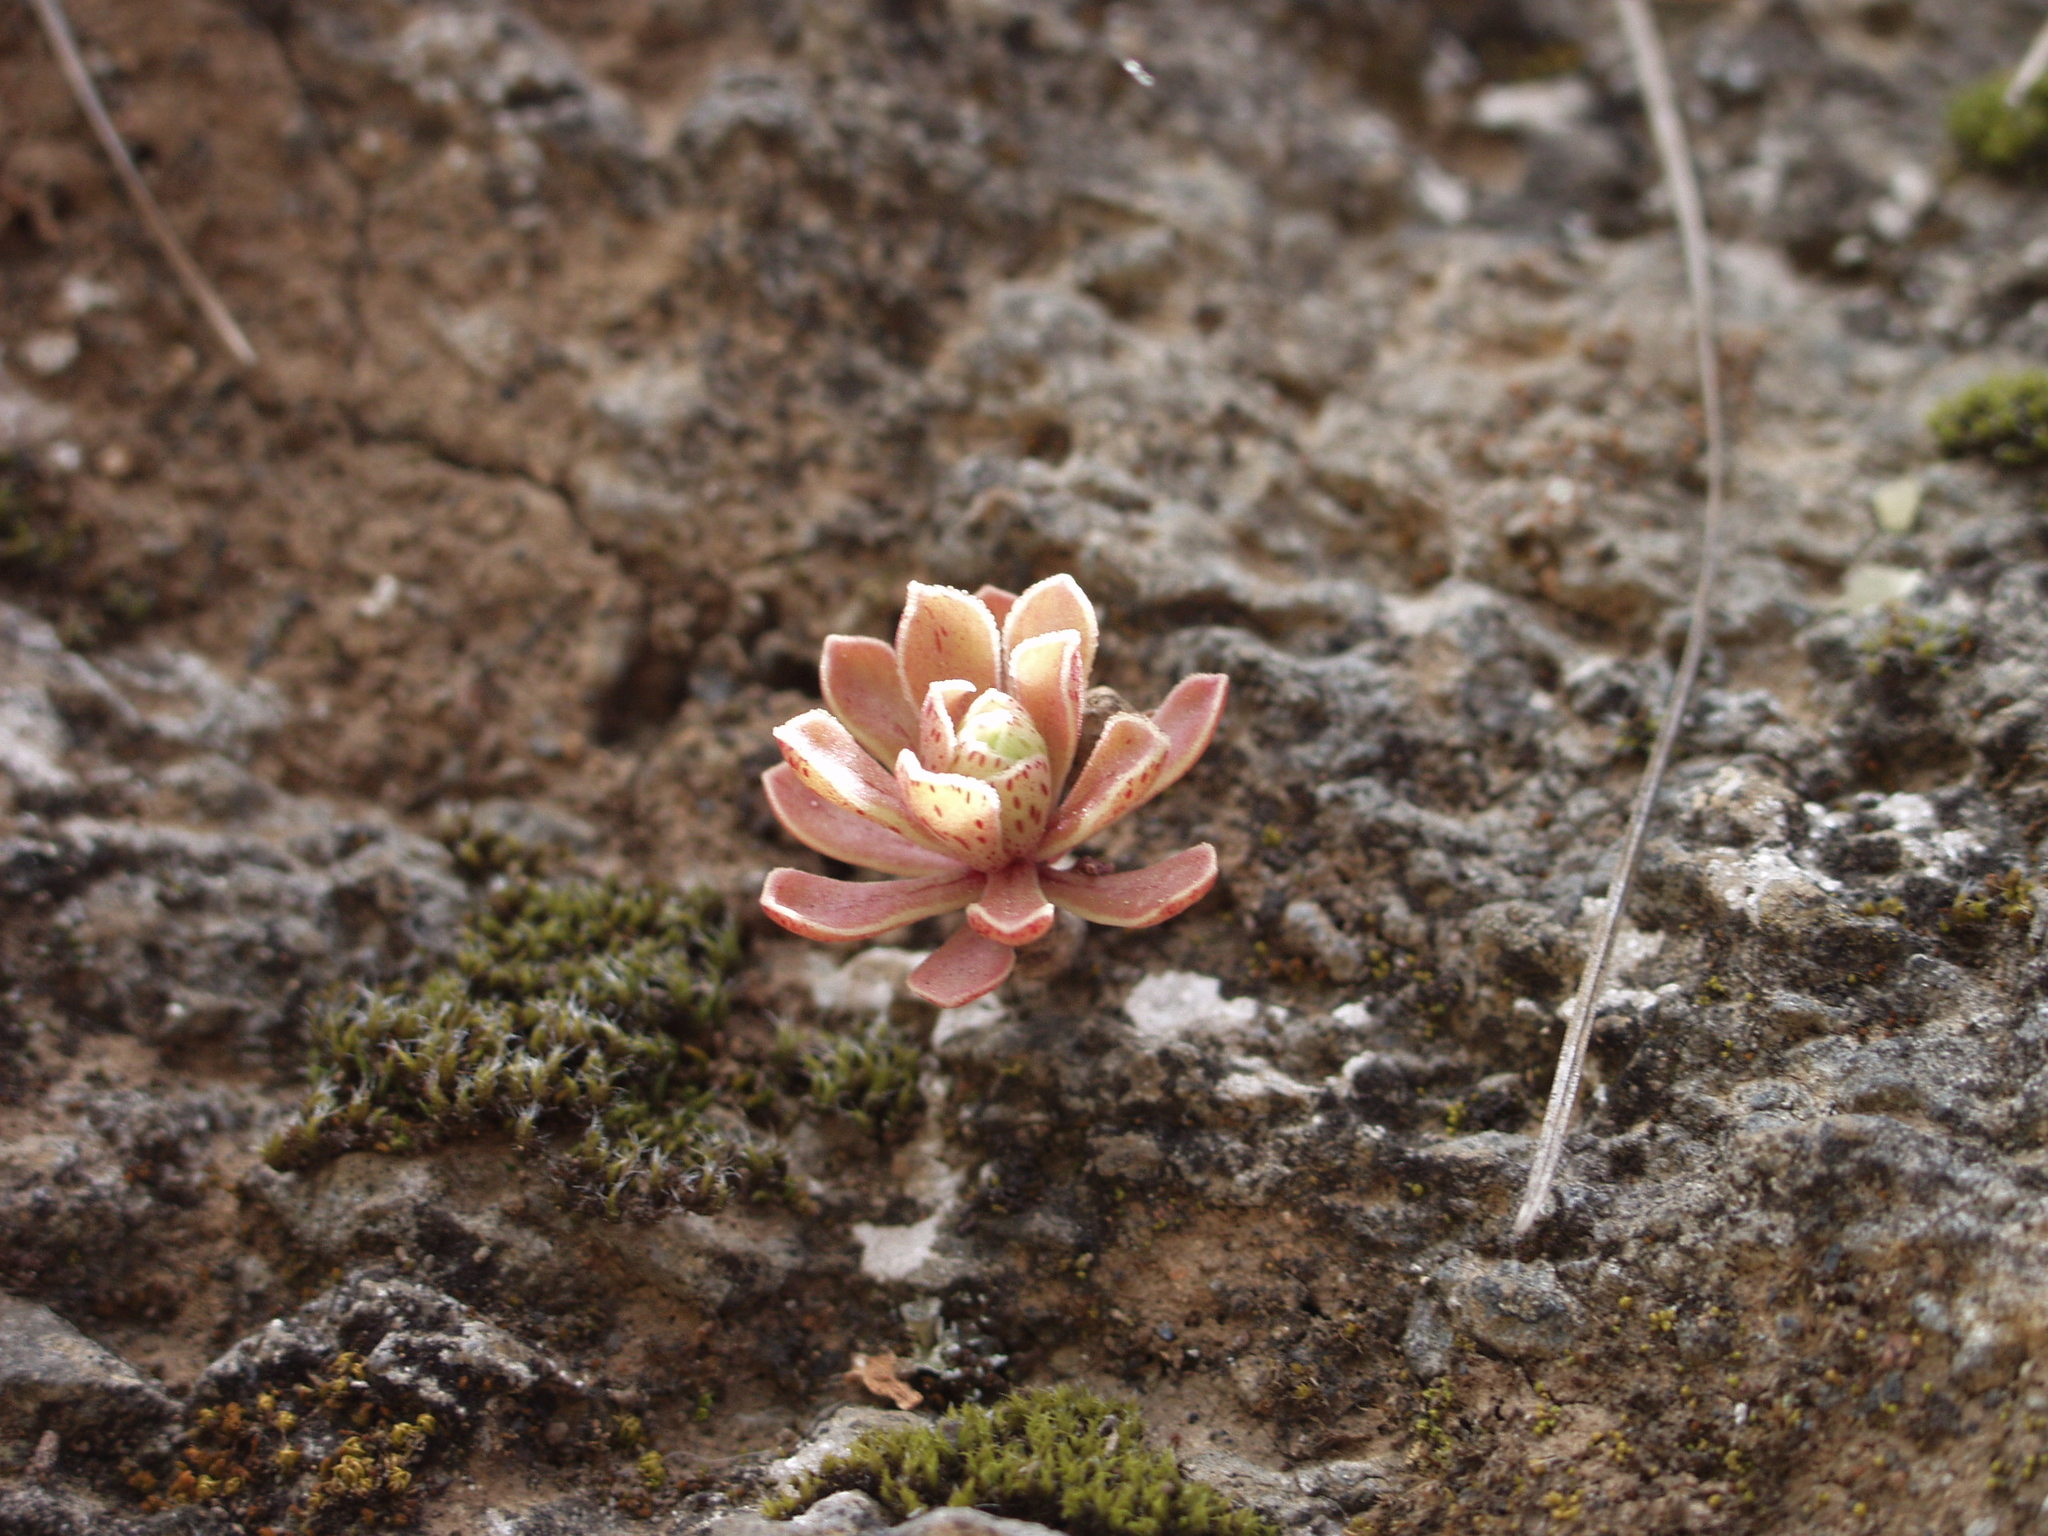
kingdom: Plantae
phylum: Tracheophyta
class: Magnoliopsida
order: Saxifragales
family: Crassulaceae
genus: Aeonium
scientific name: Aeonium spathulatum
